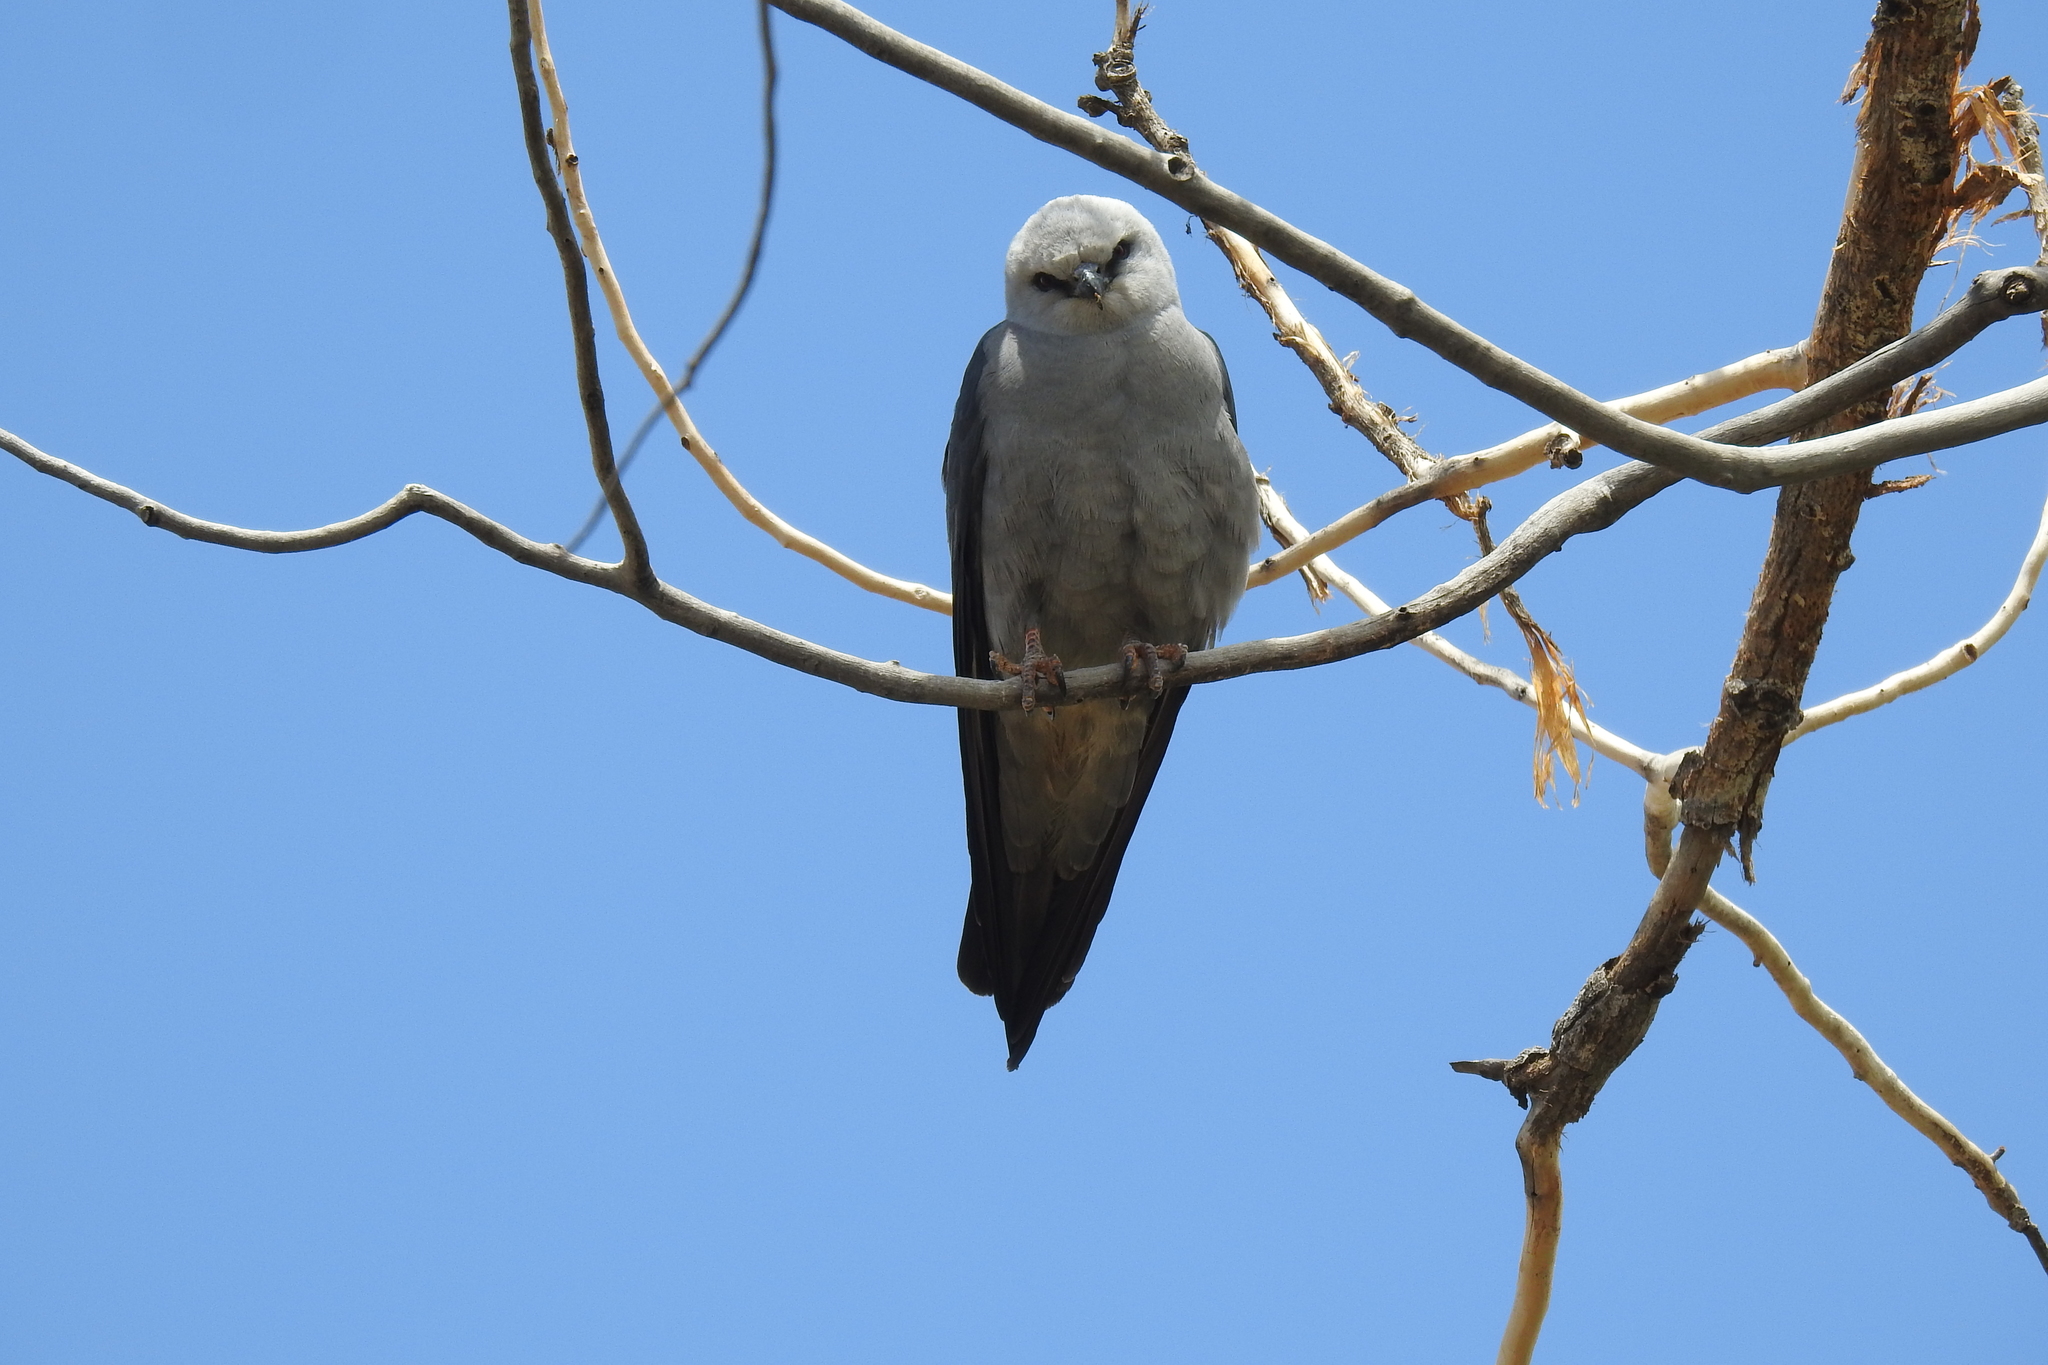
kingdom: Animalia
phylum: Chordata
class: Aves
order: Accipitriformes
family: Accipitridae
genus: Ictinia
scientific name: Ictinia mississippiensis
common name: Mississippi kite
